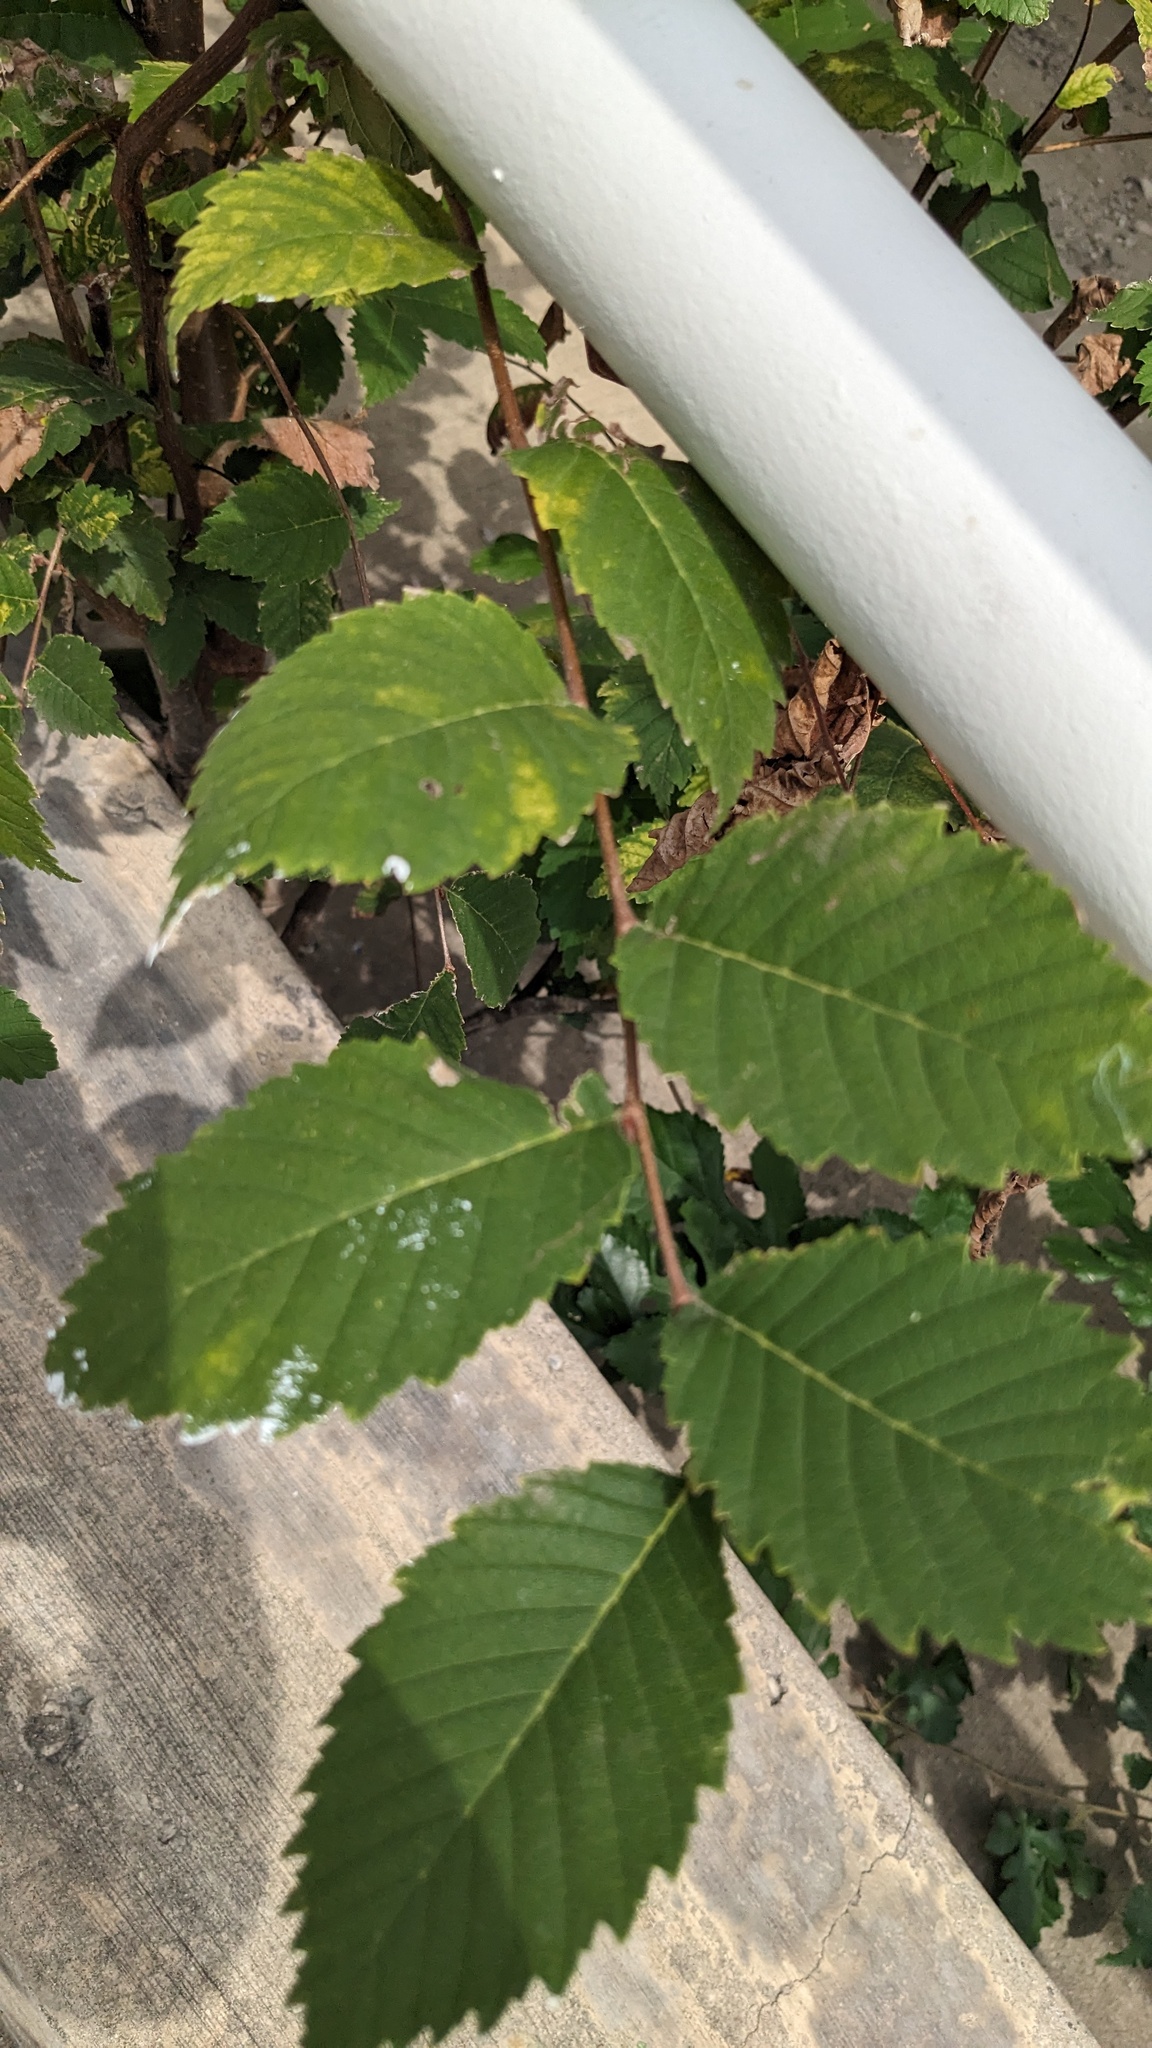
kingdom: Plantae
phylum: Tracheophyta
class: Magnoliopsida
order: Rosales
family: Ulmaceae
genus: Ulmus
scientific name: Ulmus americana
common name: American elm
